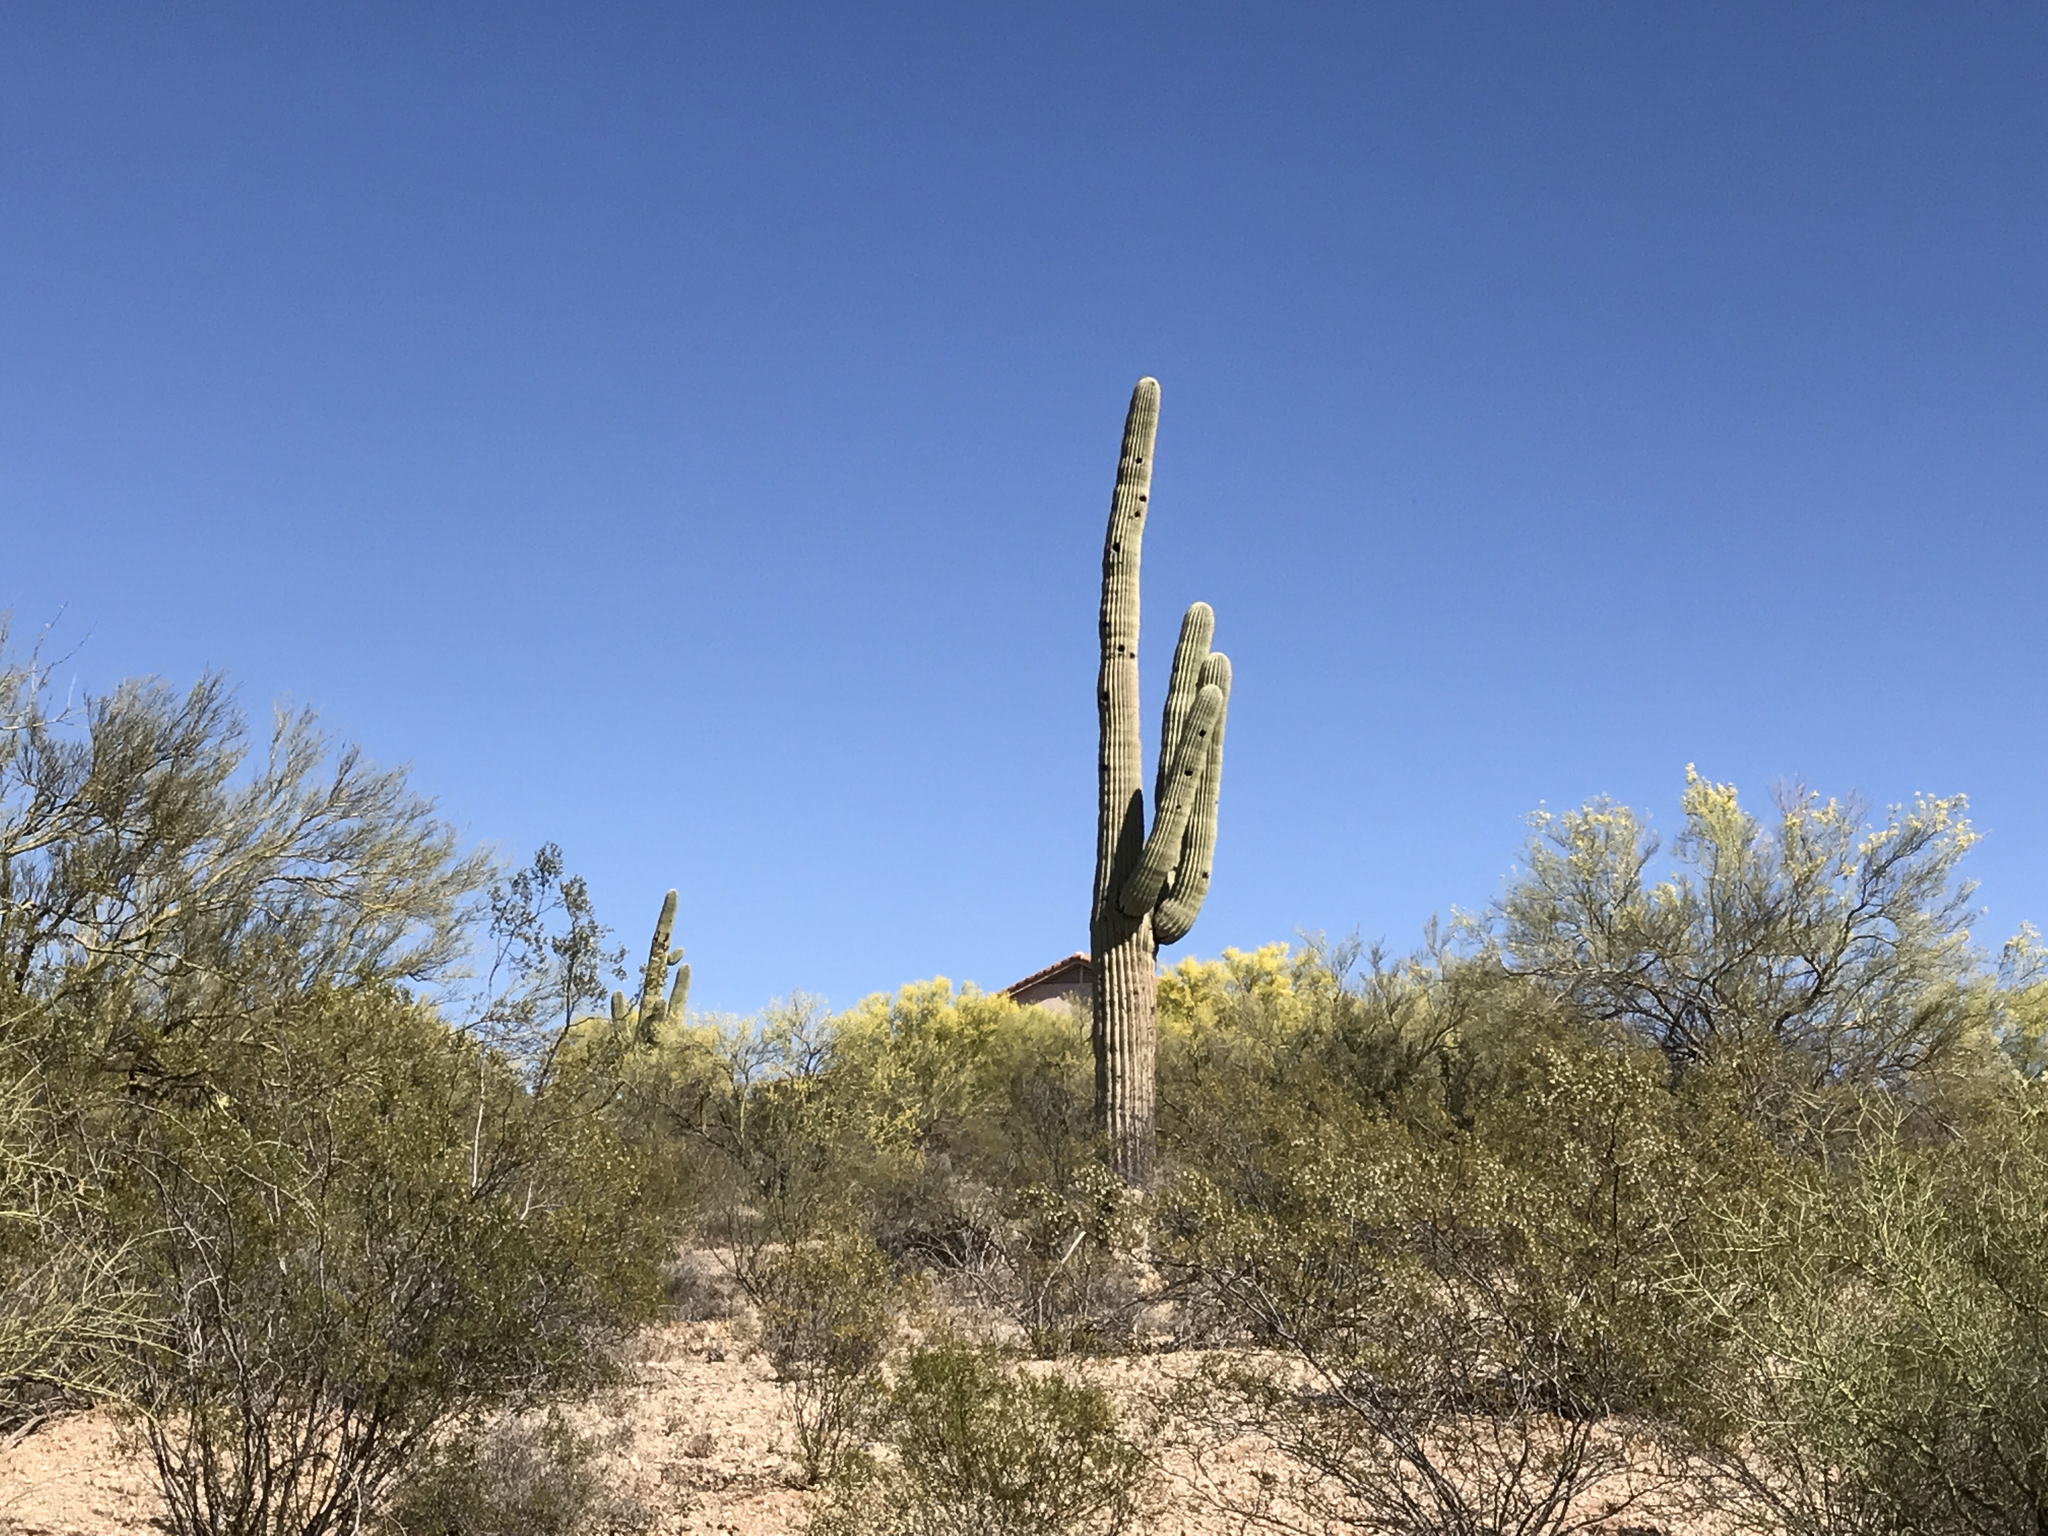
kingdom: Plantae
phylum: Tracheophyta
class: Magnoliopsida
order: Caryophyllales
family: Cactaceae
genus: Carnegiea
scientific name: Carnegiea gigantea
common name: Saguaro
